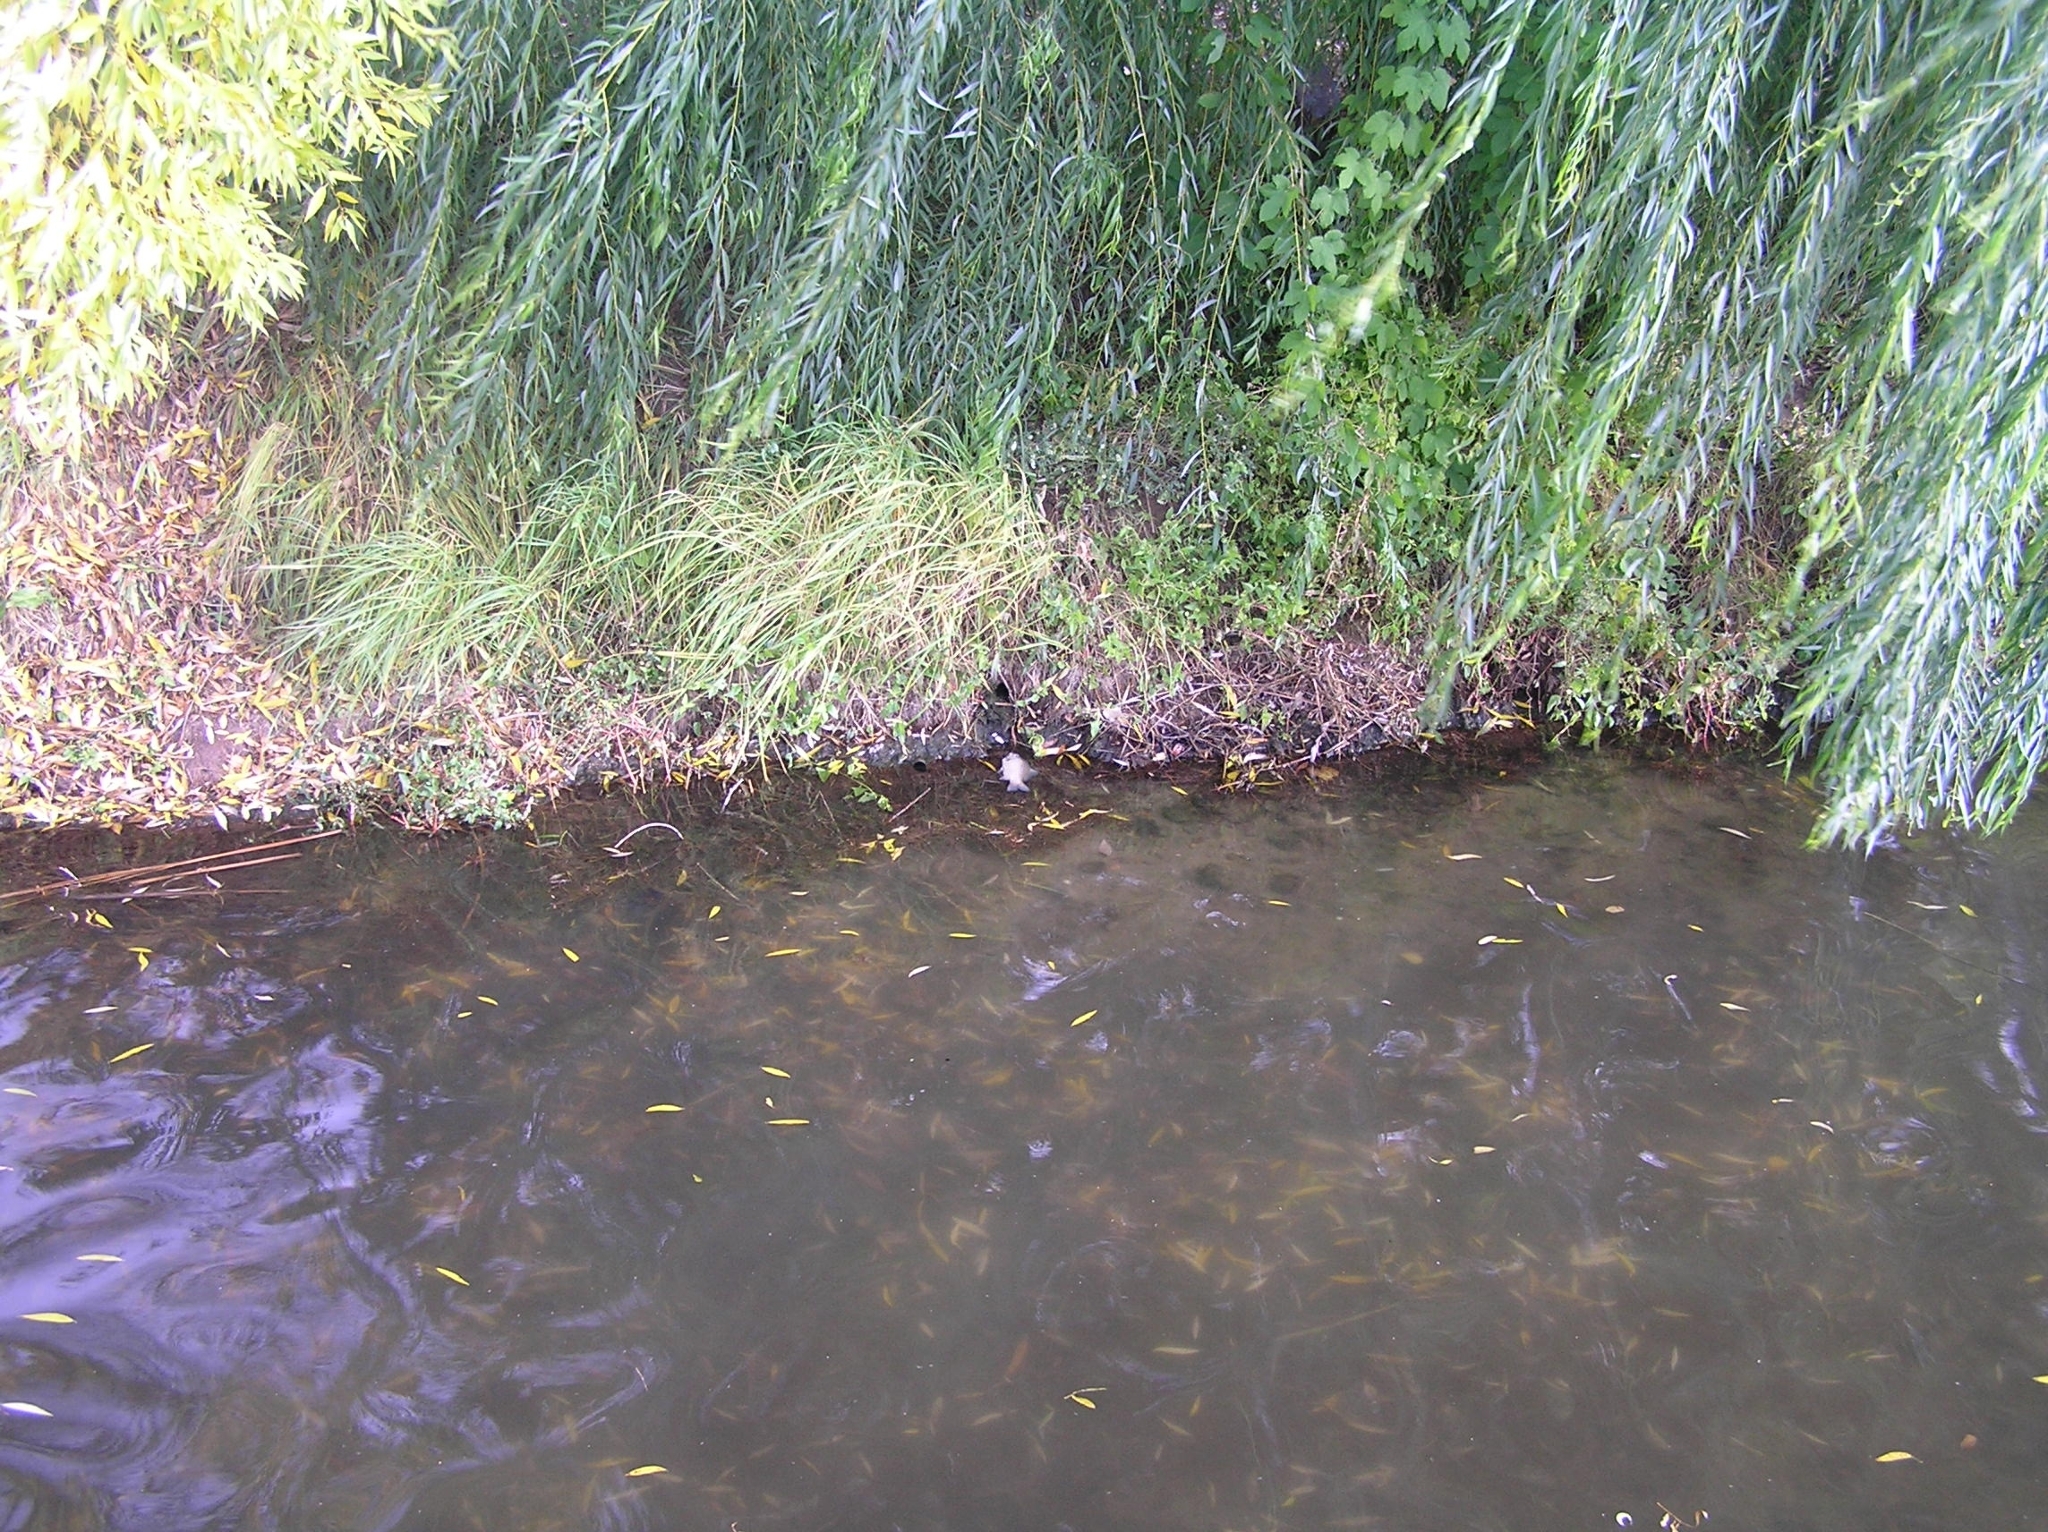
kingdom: Animalia
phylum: Chordata
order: Cypriniformes
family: Cyprinidae
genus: Carassius
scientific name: Carassius gibelio
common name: Prussian carp
